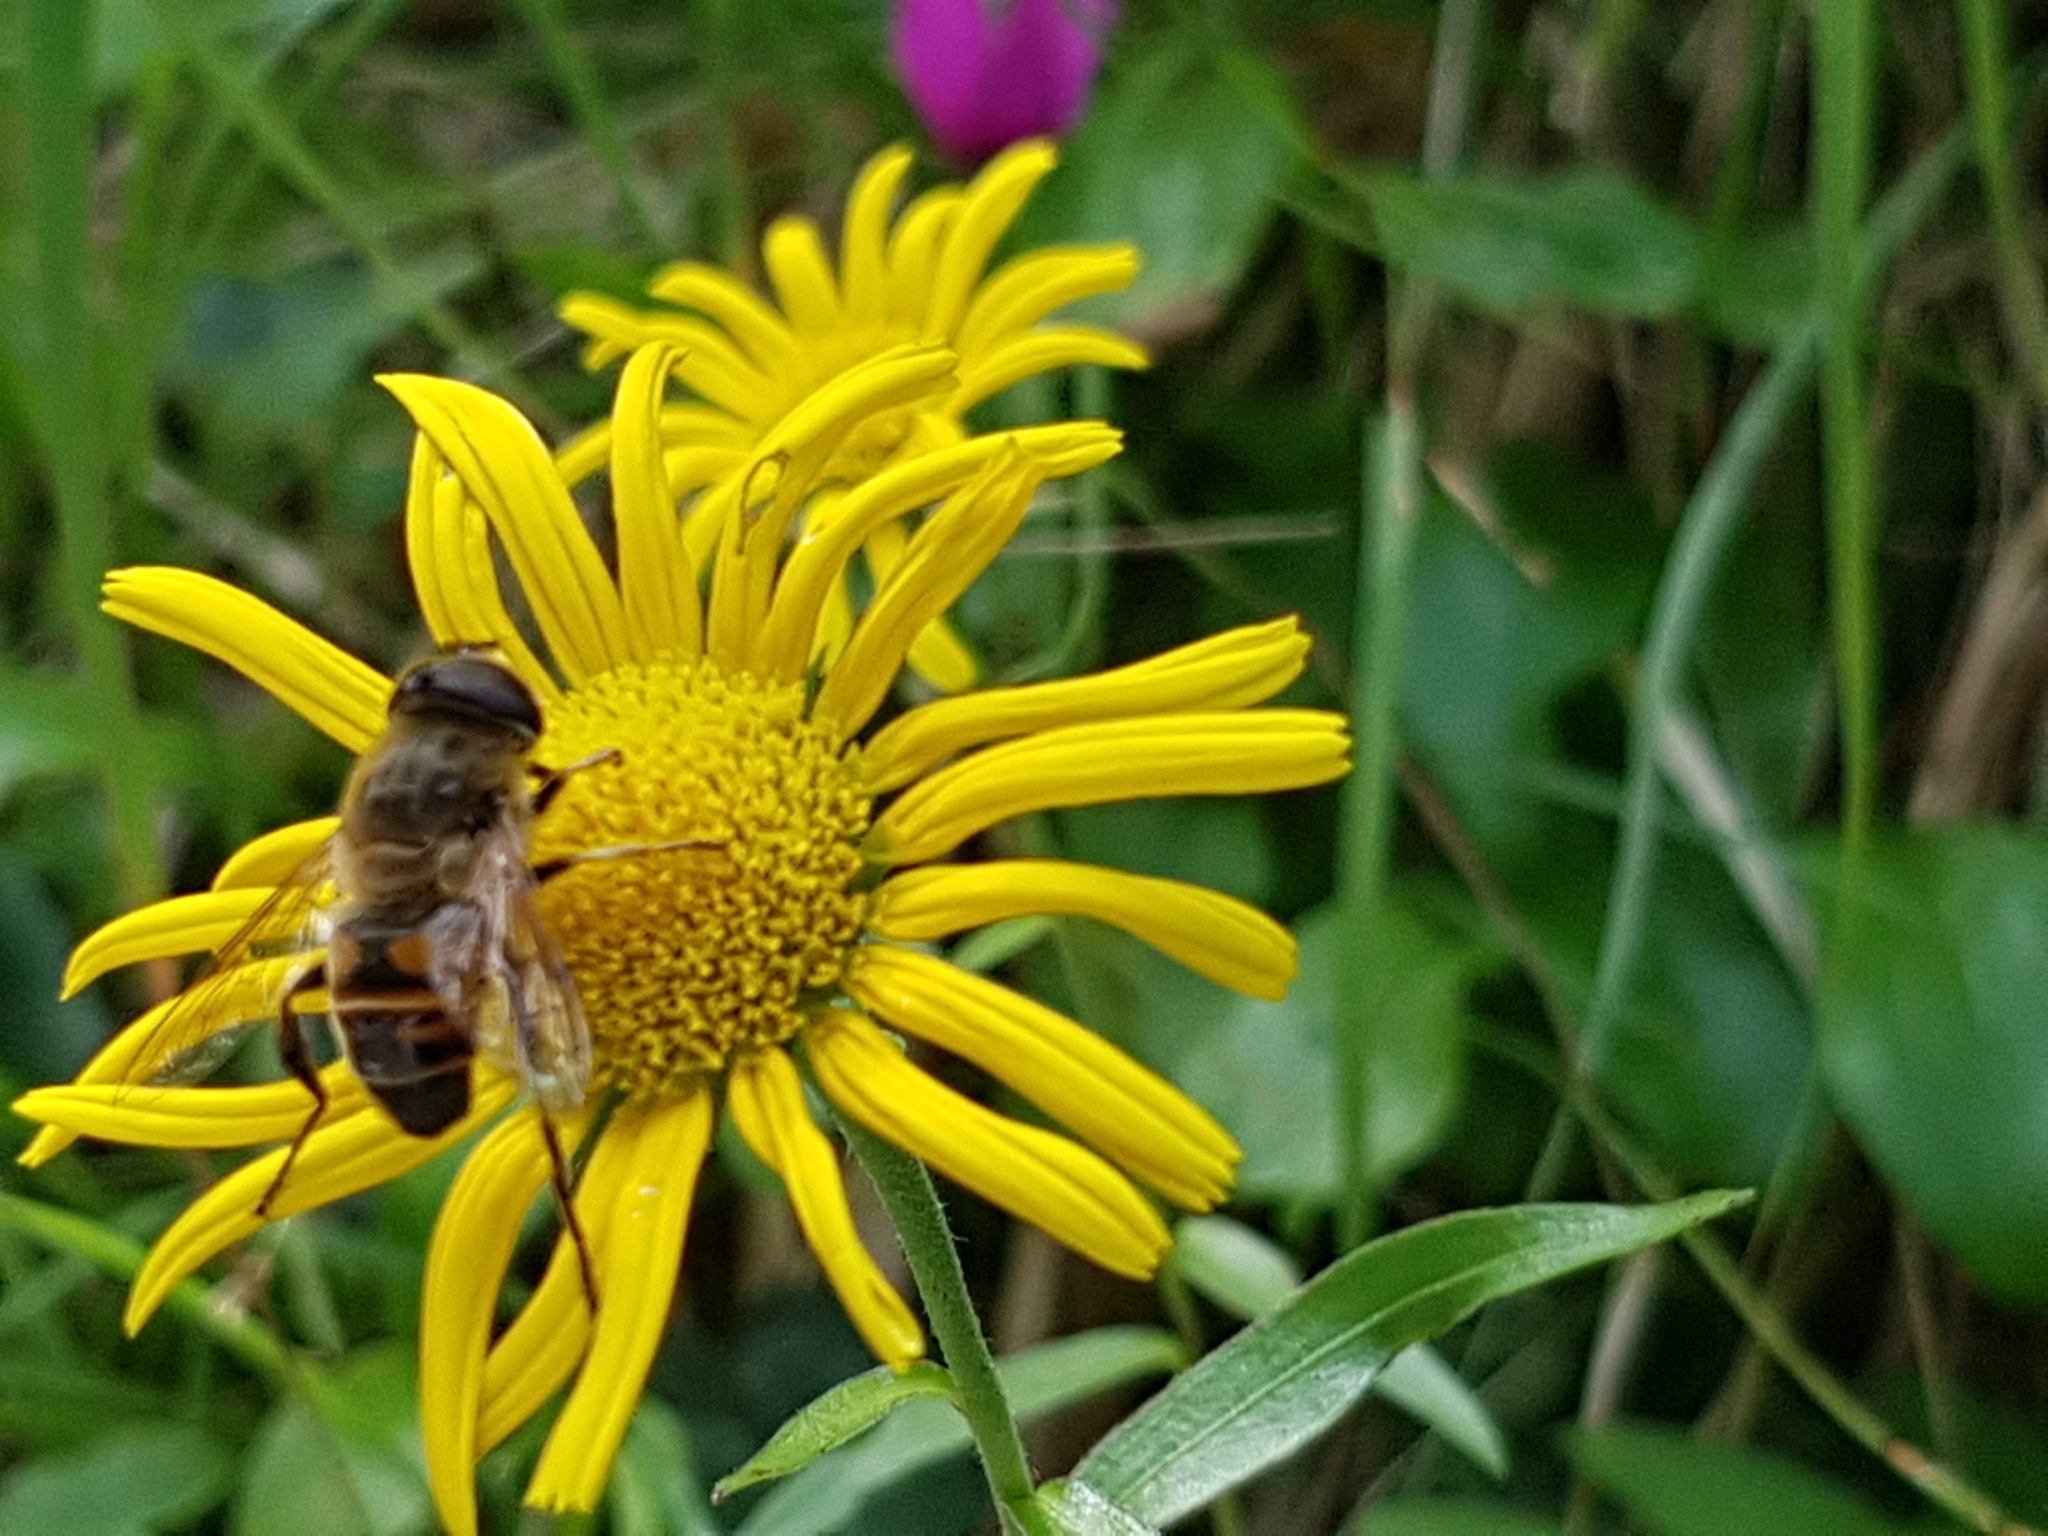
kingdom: Animalia
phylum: Arthropoda
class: Insecta
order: Diptera
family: Syrphidae
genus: Eristalis
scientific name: Eristalis tenax
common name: Drone fly
